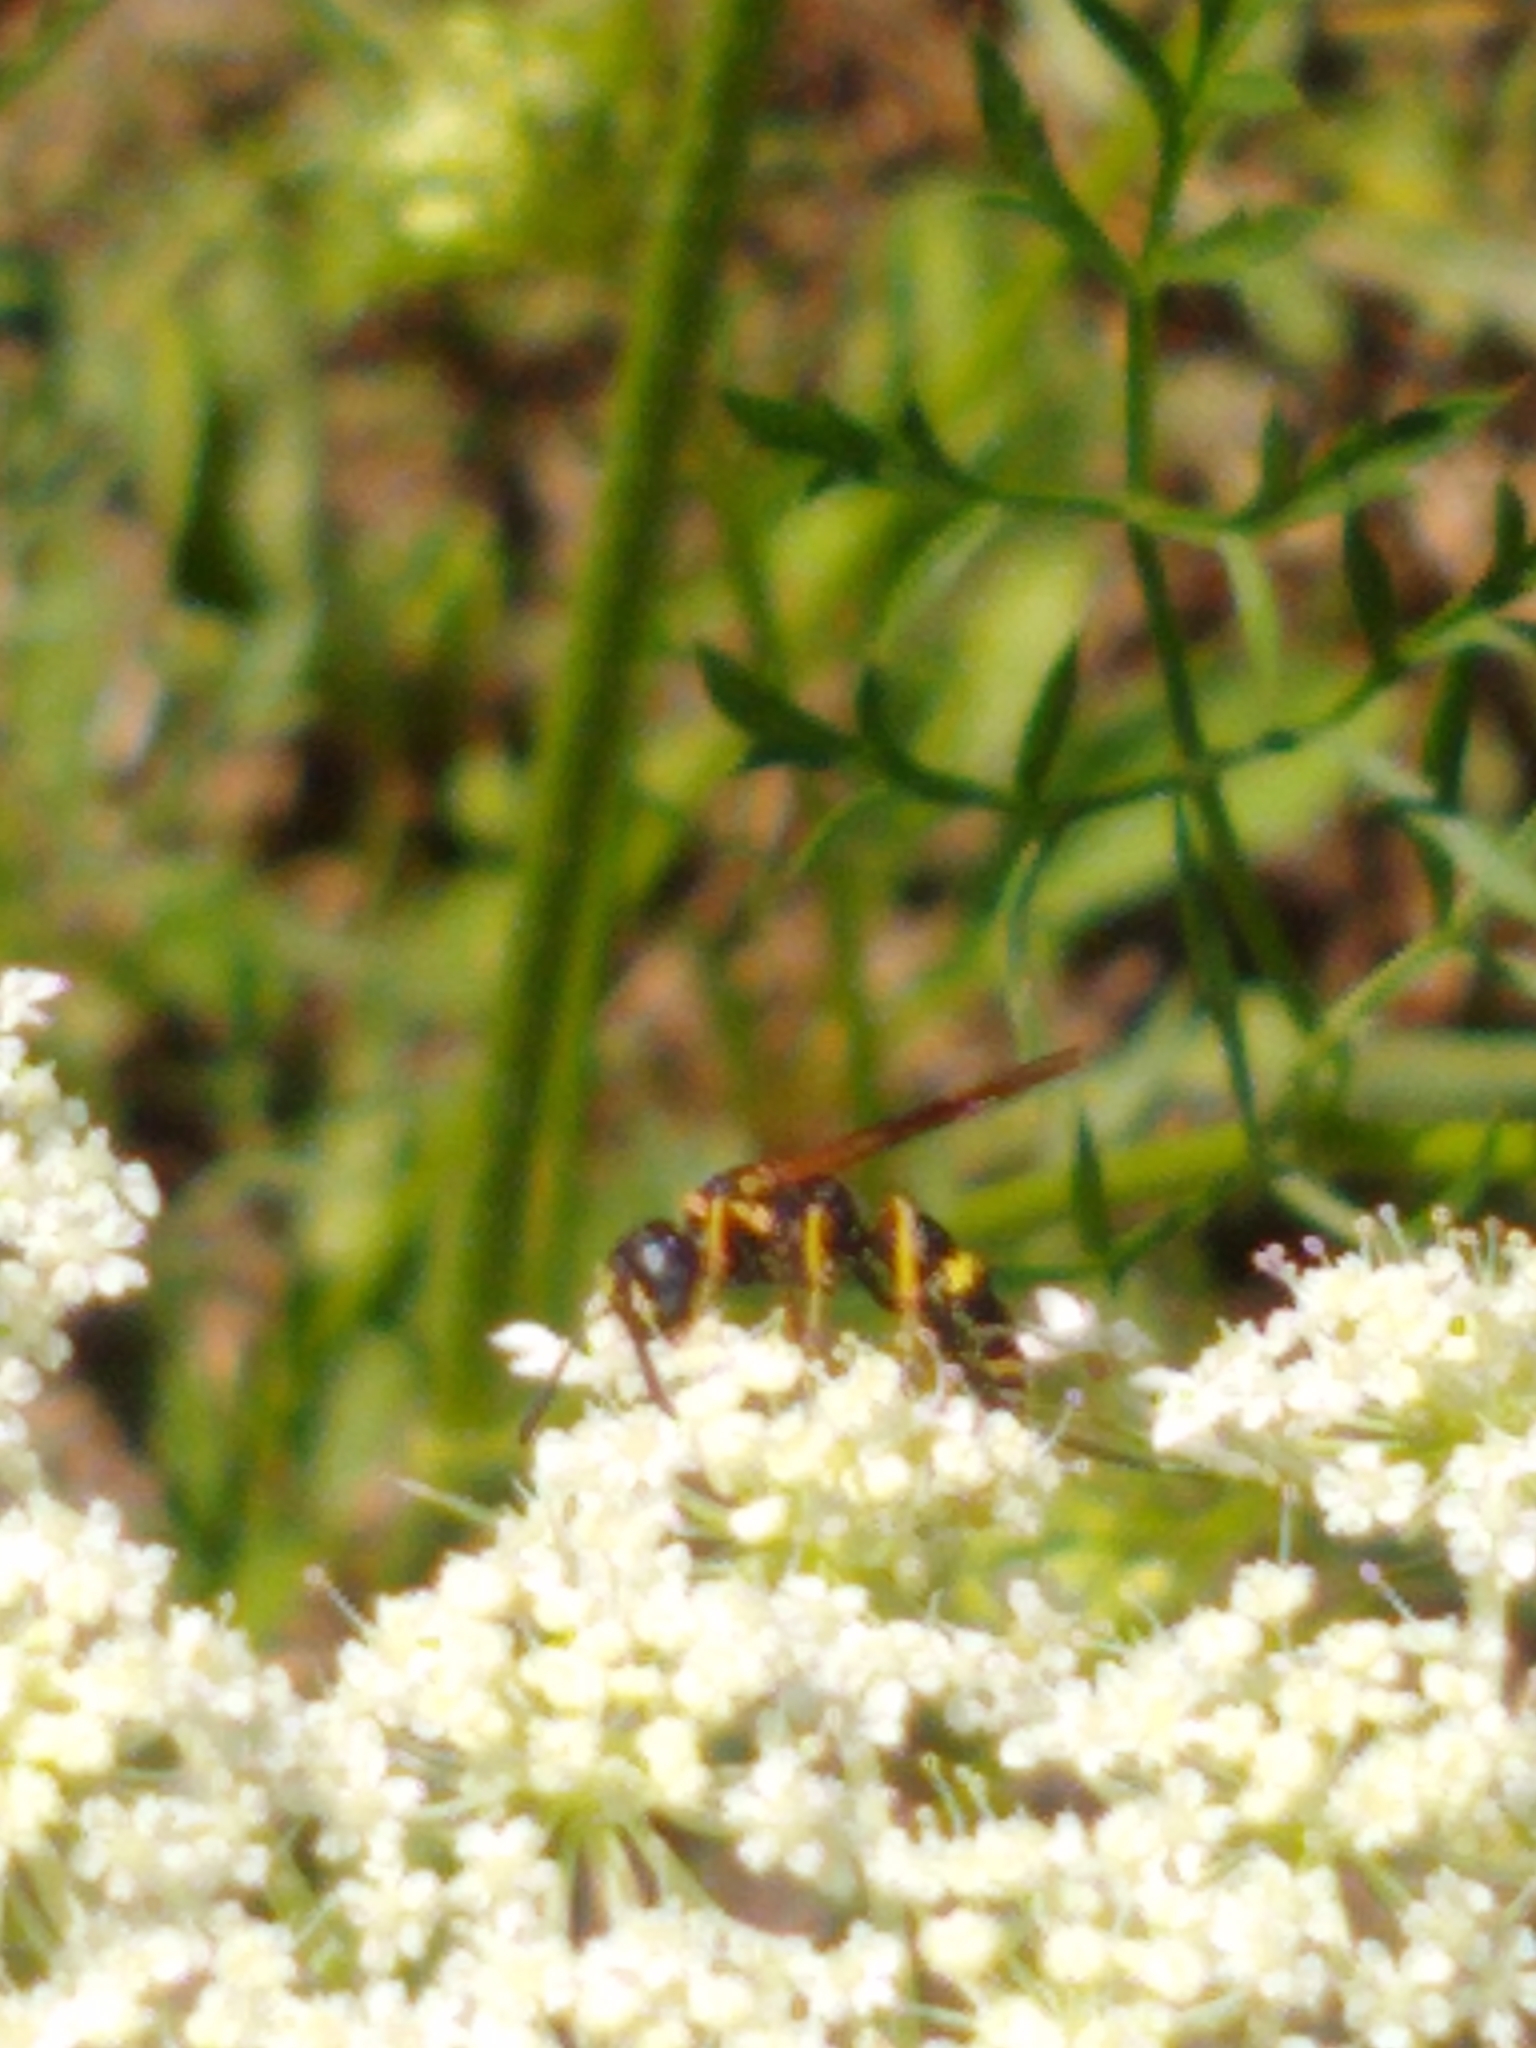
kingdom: Animalia
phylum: Arthropoda
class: Insecta
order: Hymenoptera
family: Crabronidae
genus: Philanthus
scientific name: Philanthus gibbosus
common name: Humped beewolf
